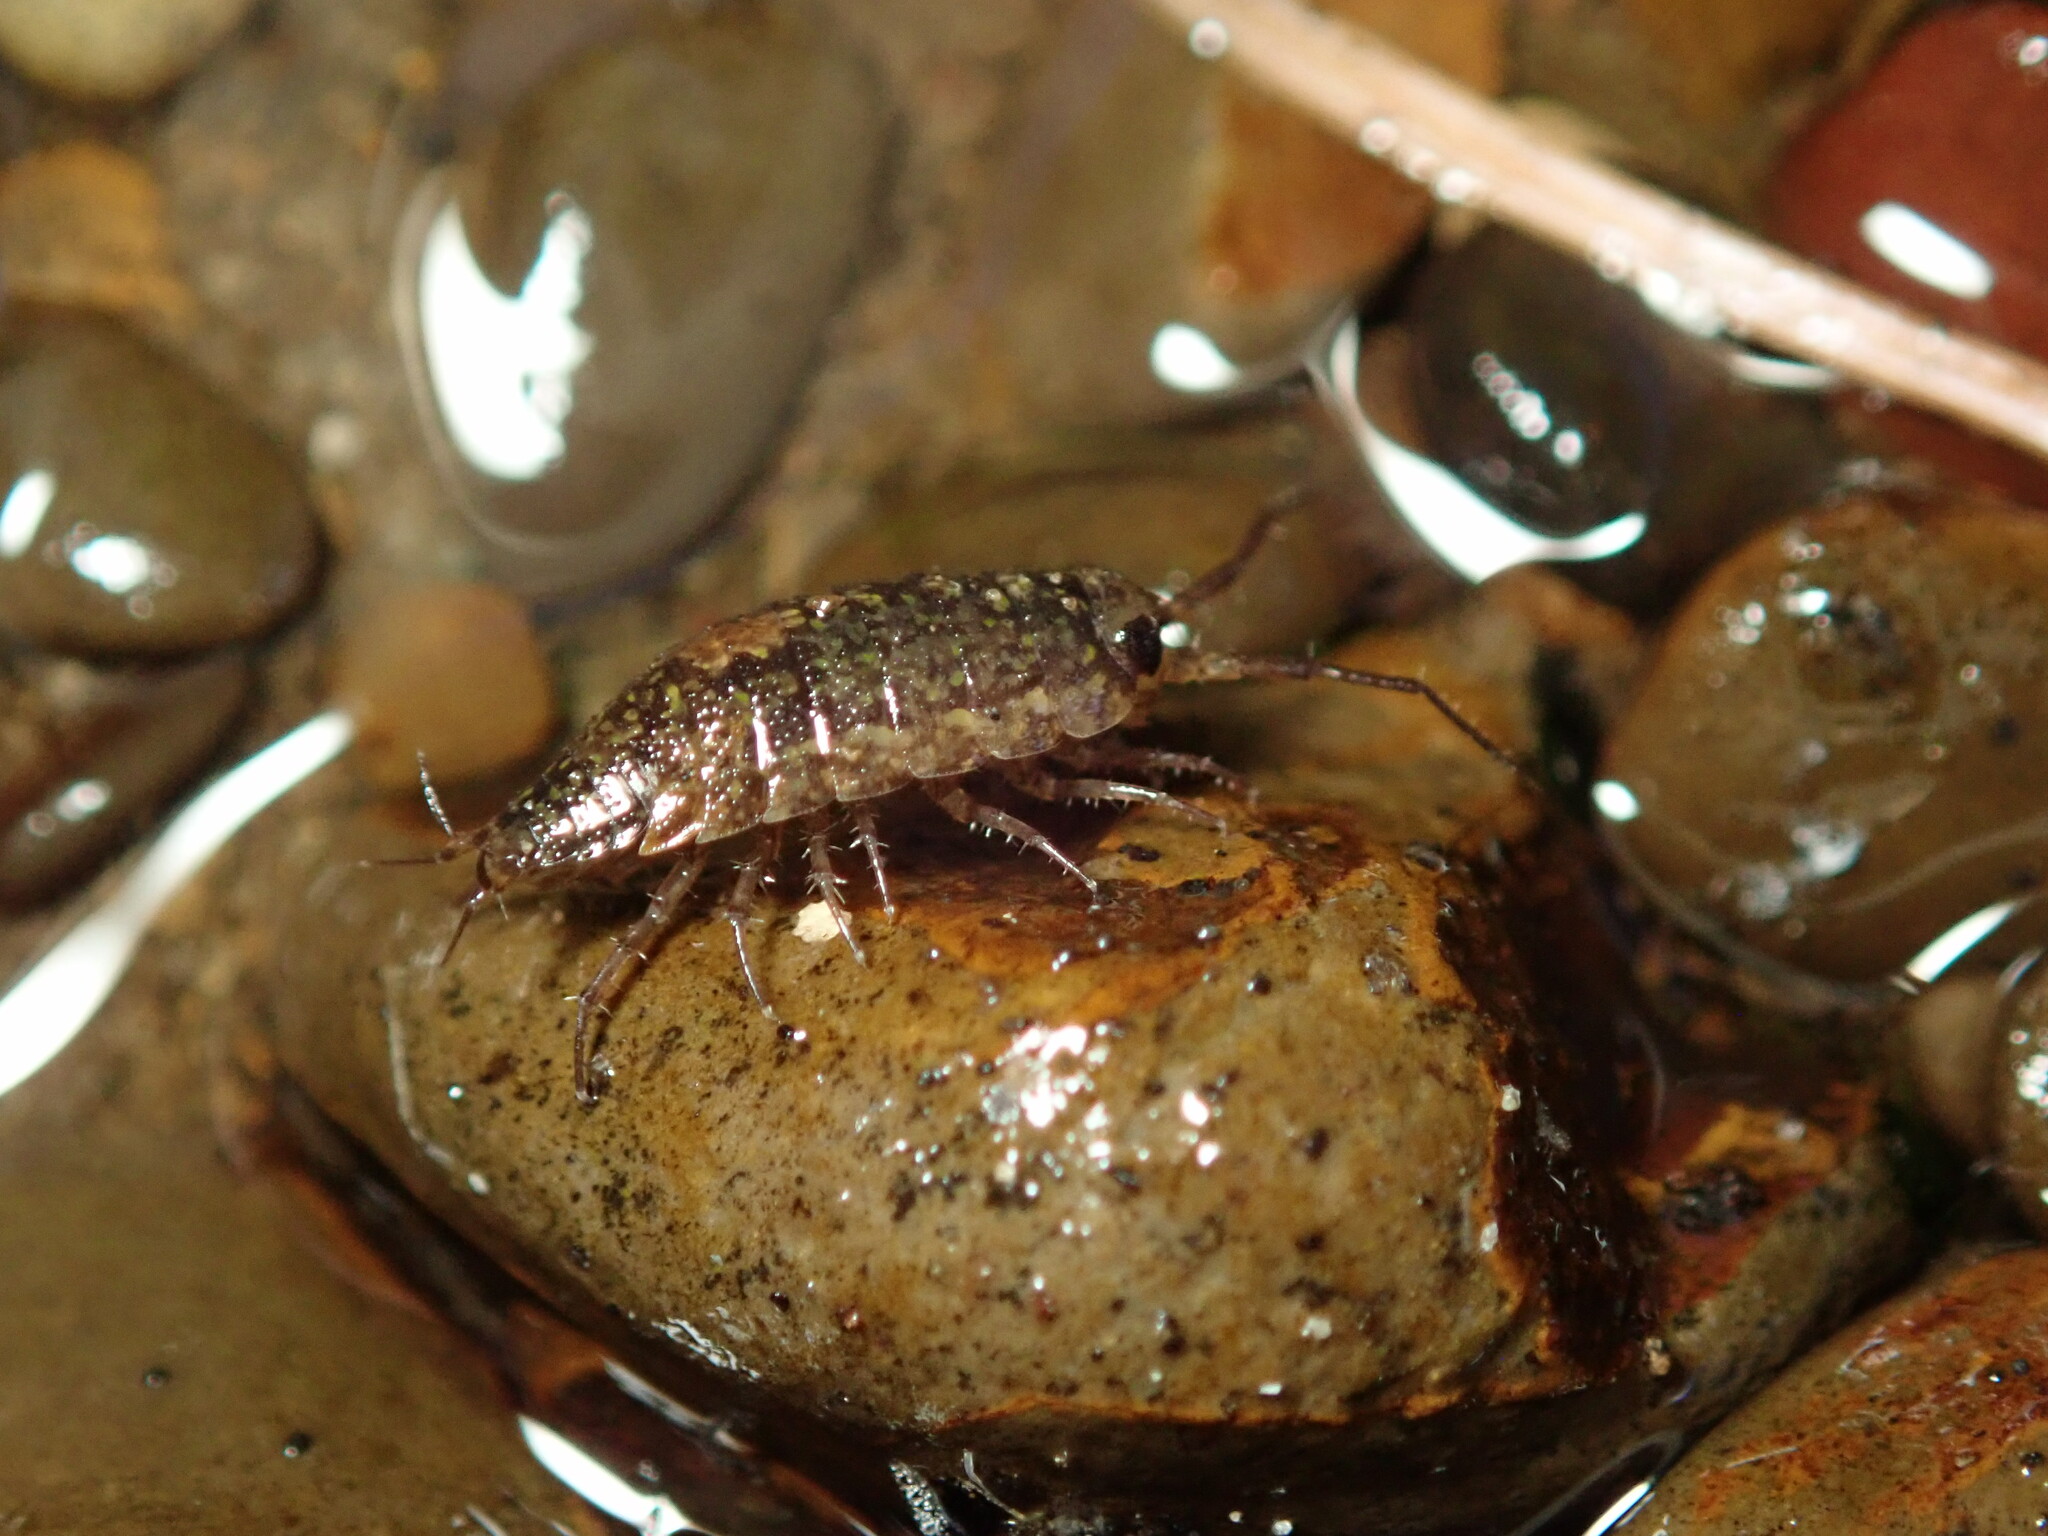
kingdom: Animalia
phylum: Arthropoda
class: Malacostraca
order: Isopoda
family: Ligiidae
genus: Ligidium
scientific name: Ligidium latum
